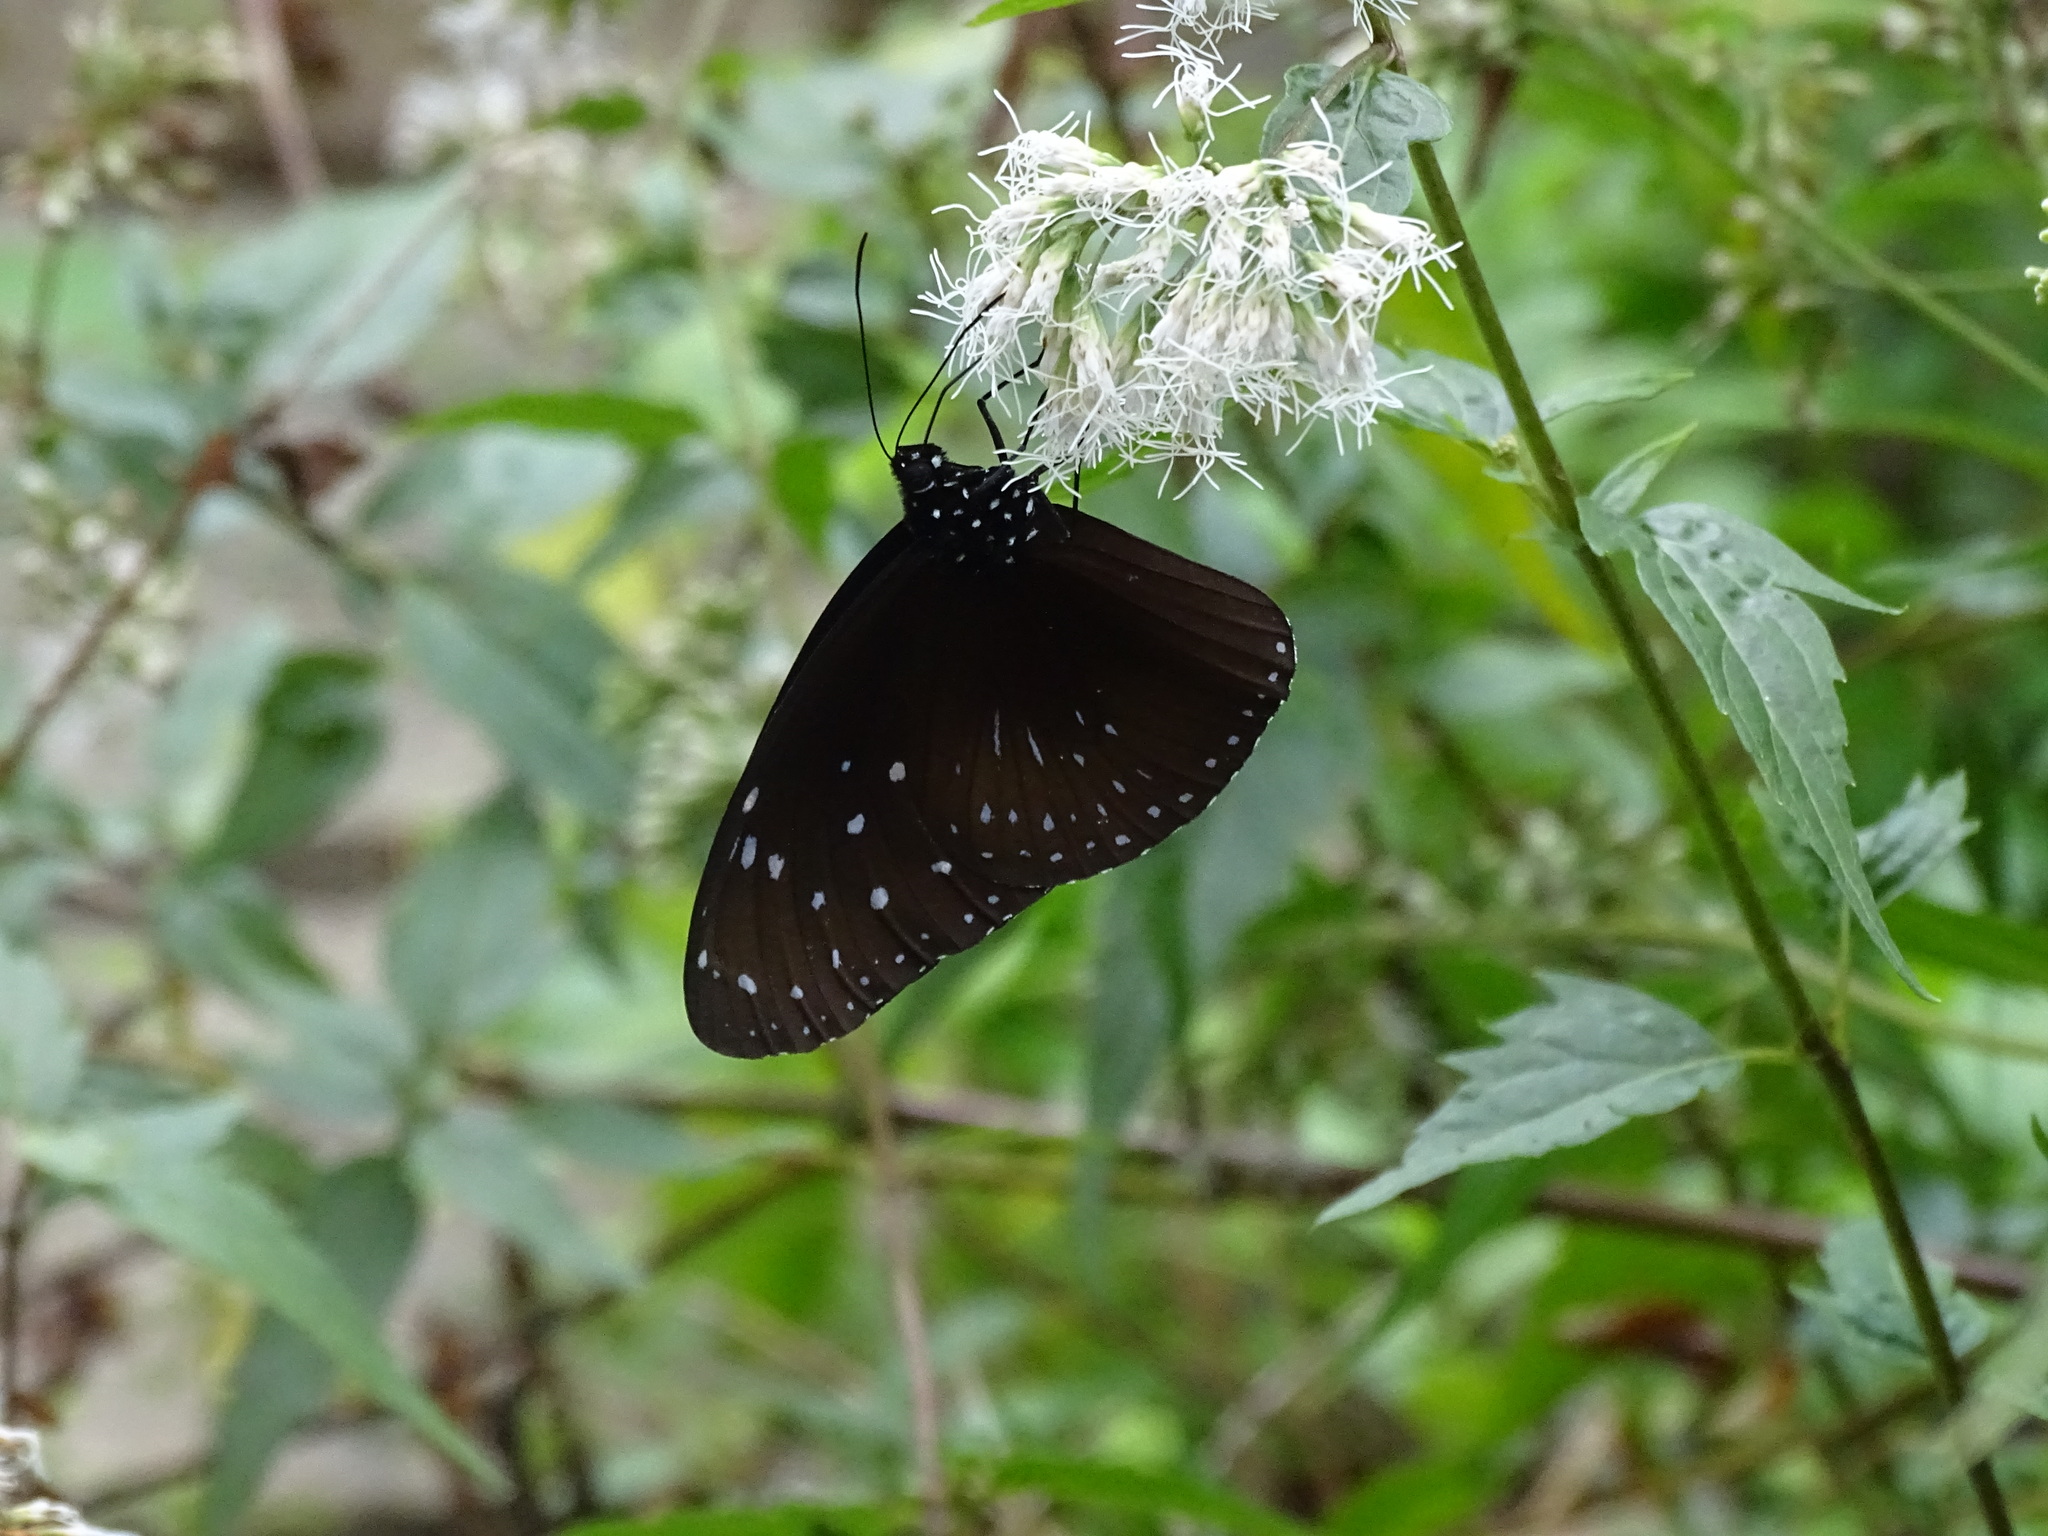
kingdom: Animalia
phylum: Arthropoda
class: Insecta
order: Lepidoptera
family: Nymphalidae
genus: Euploea
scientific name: Euploea mulciber
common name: Striped blue crow butterfly
